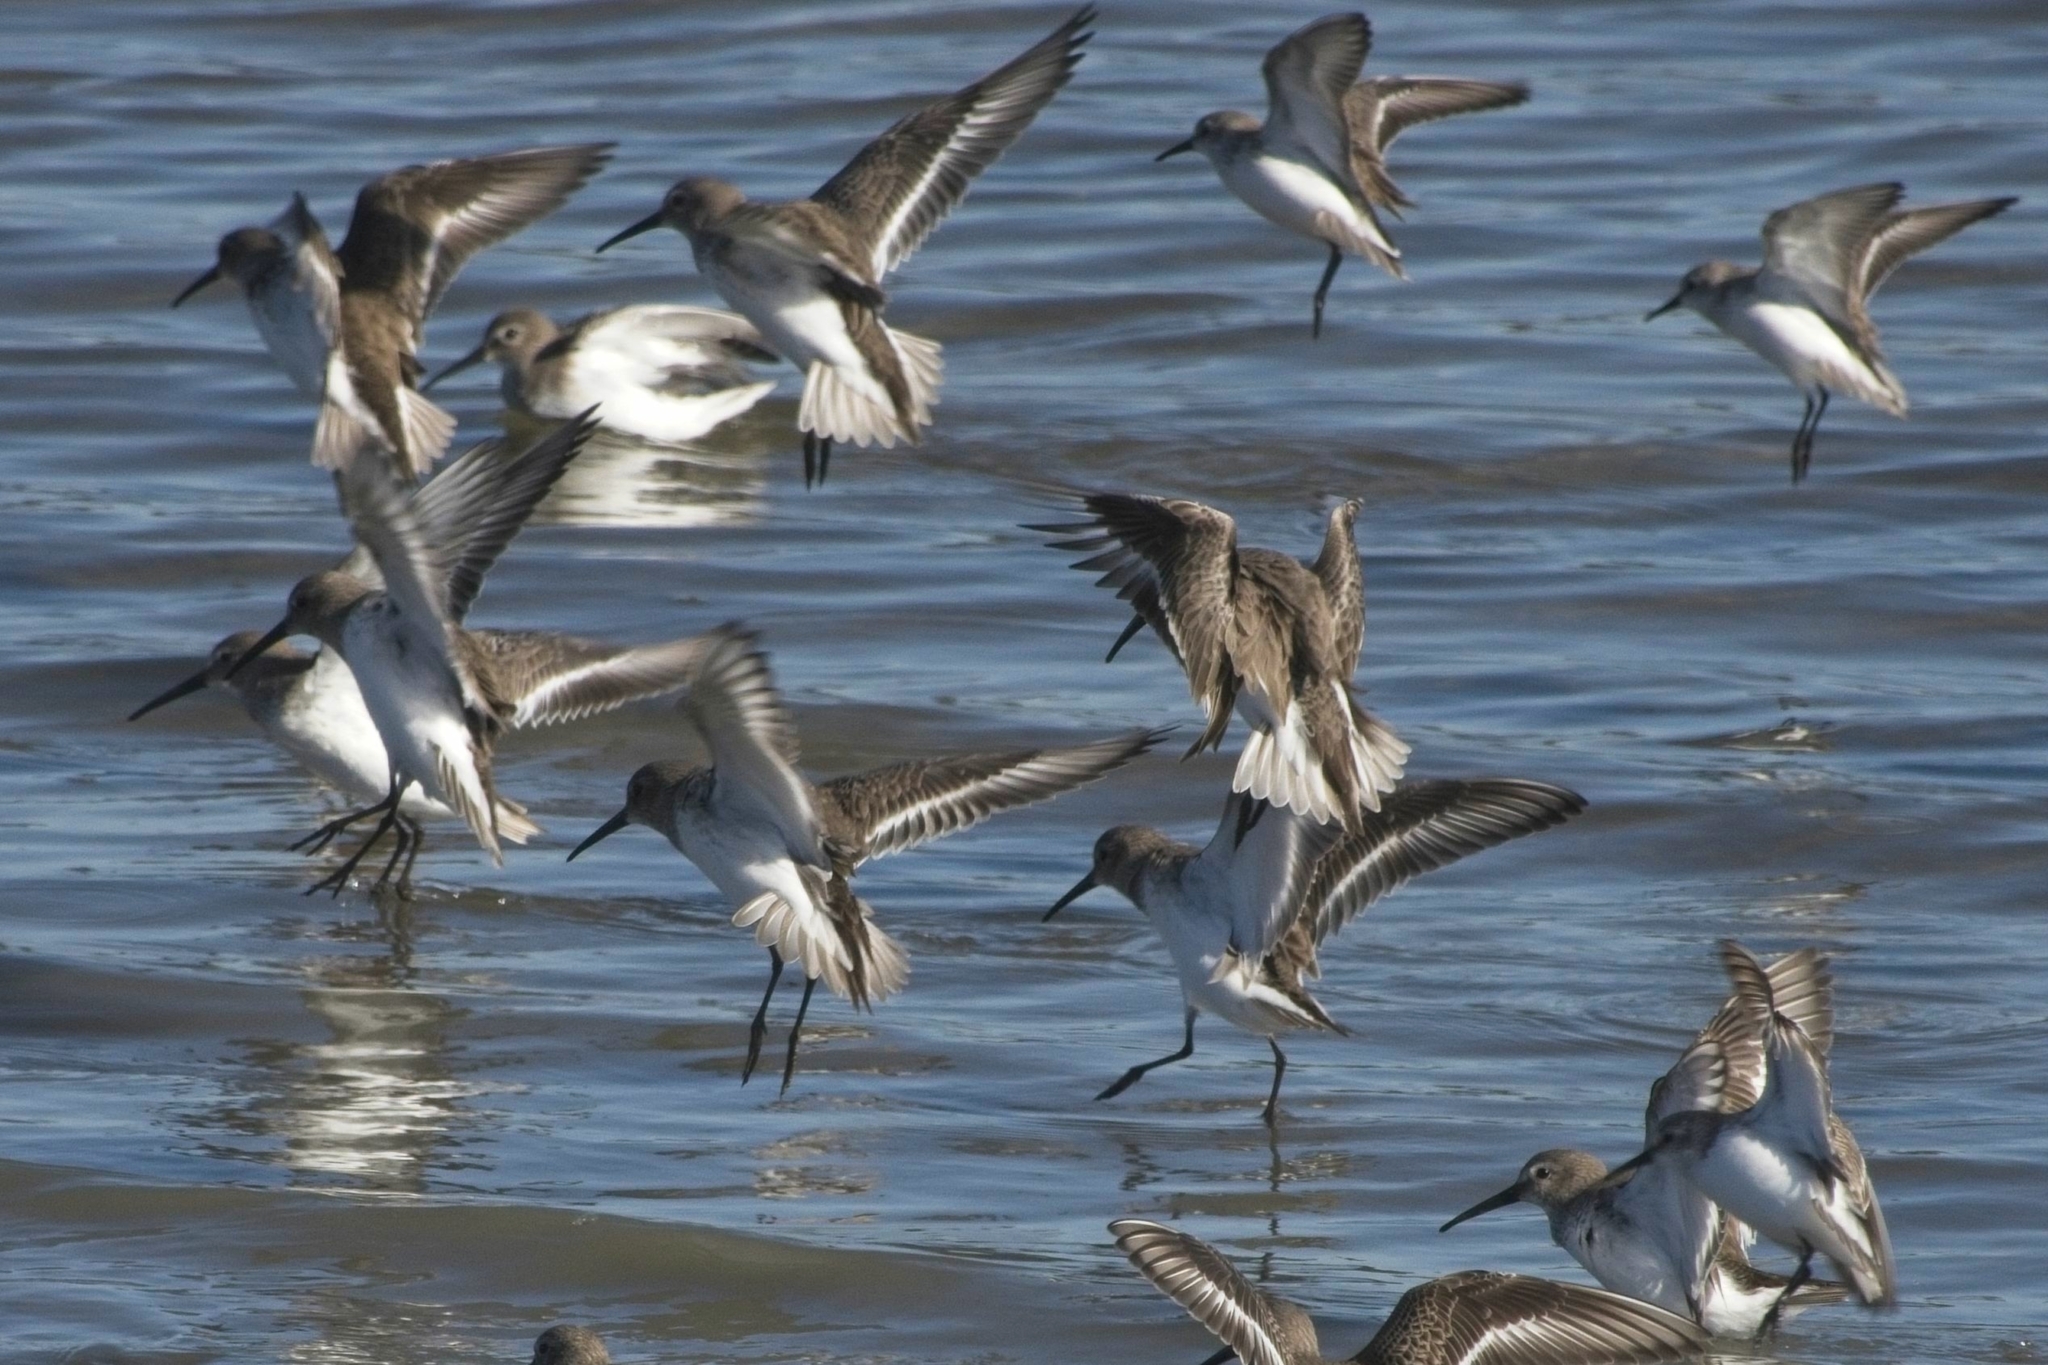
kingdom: Animalia
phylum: Chordata
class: Aves
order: Charadriiformes
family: Scolopacidae
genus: Calidris
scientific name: Calidris alpina
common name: Dunlin
